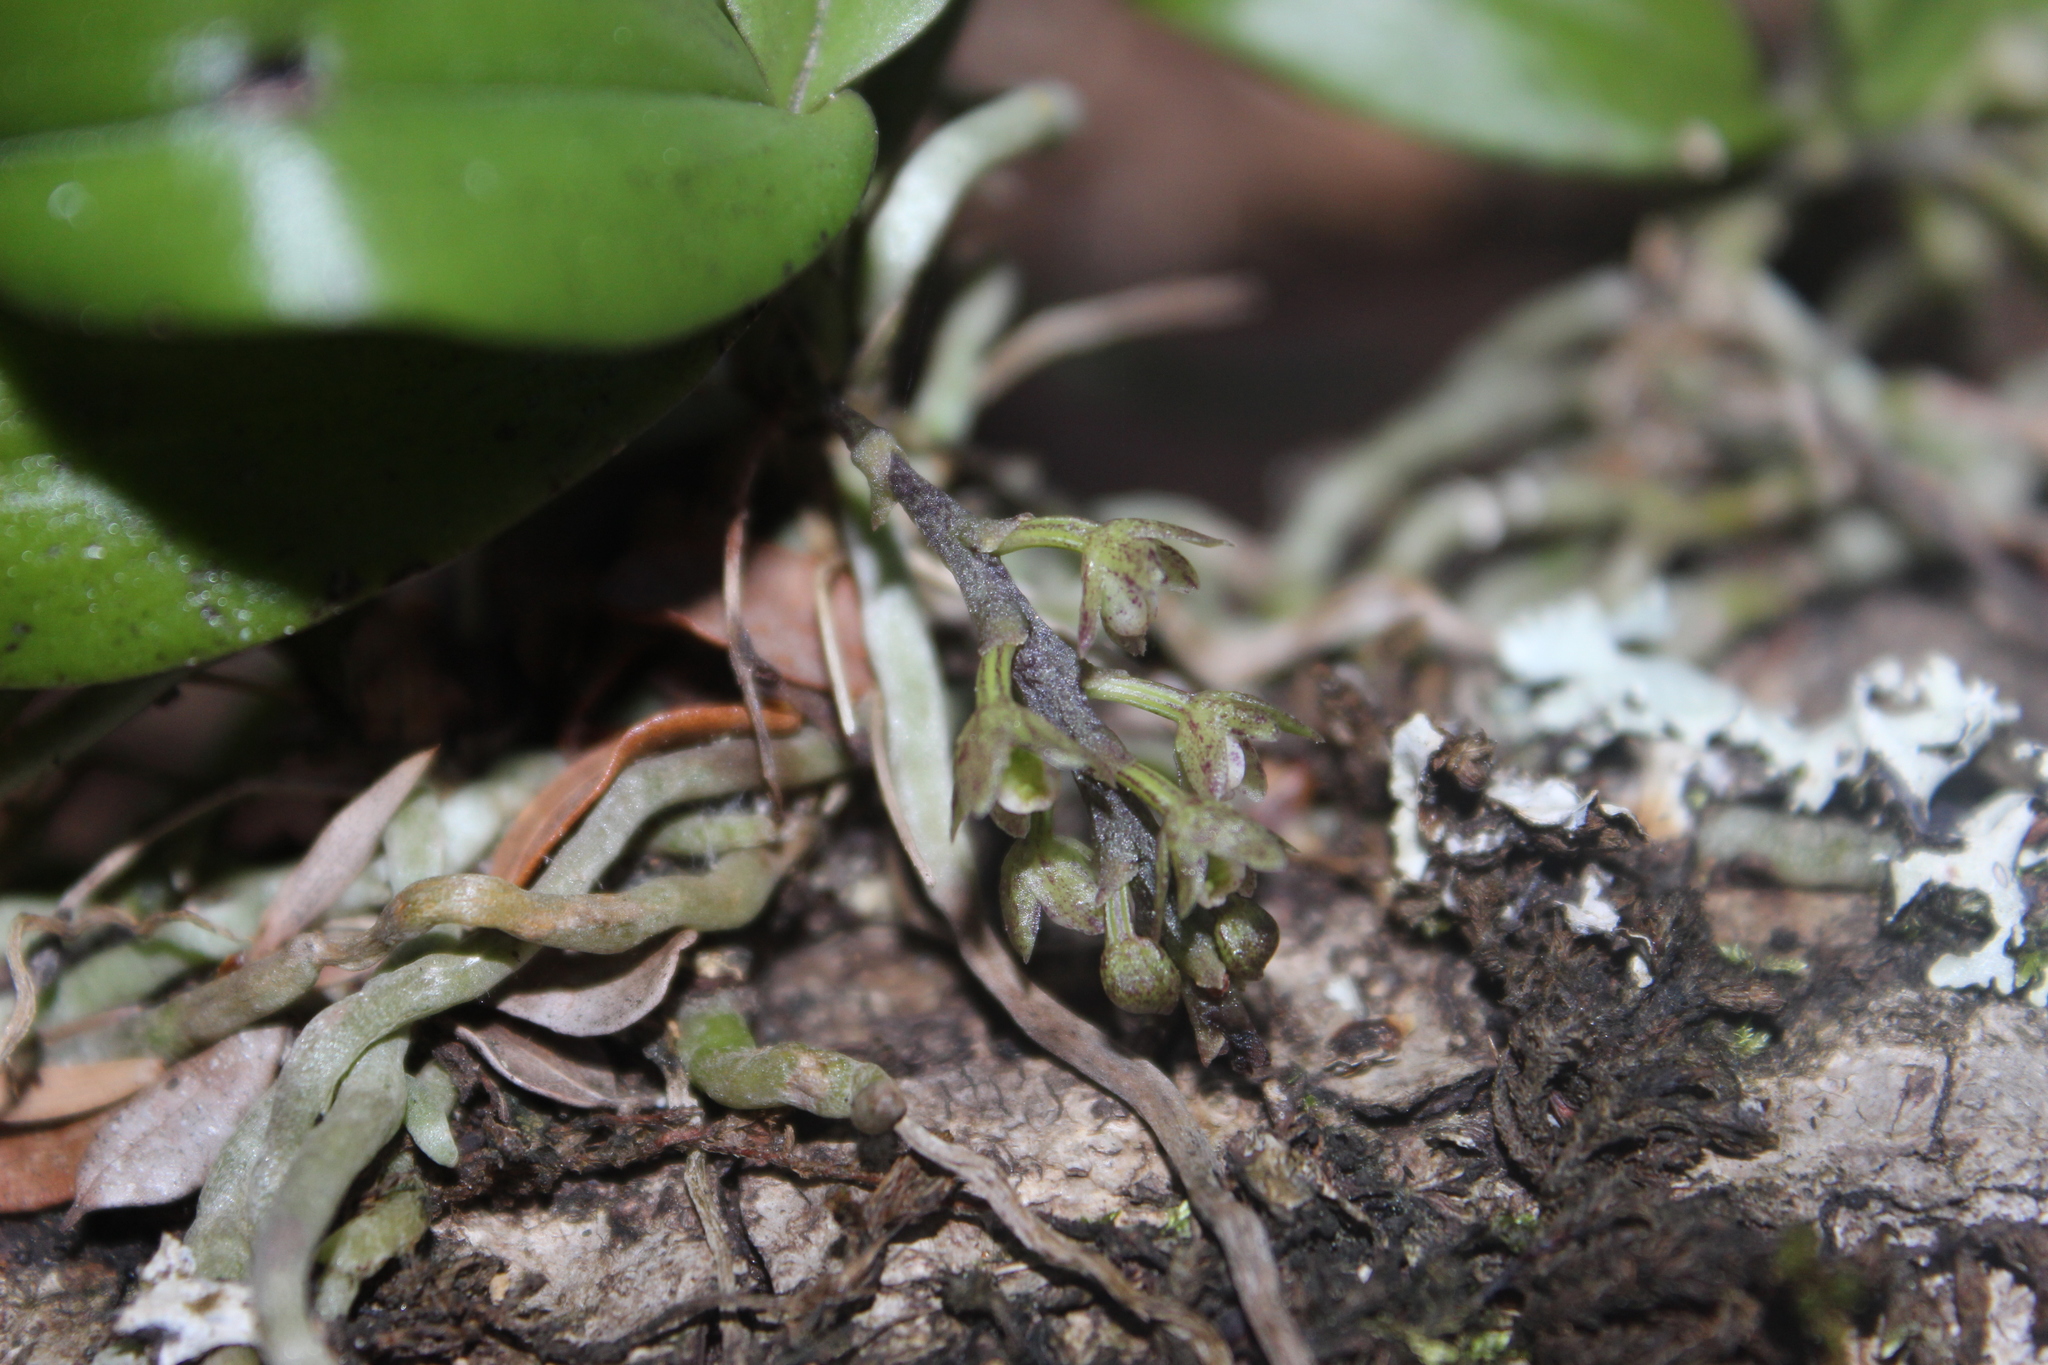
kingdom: Plantae
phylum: Tracheophyta
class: Liliopsida
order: Asparagales
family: Orchidaceae
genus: Drymoanthus
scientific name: Drymoanthus adversus
